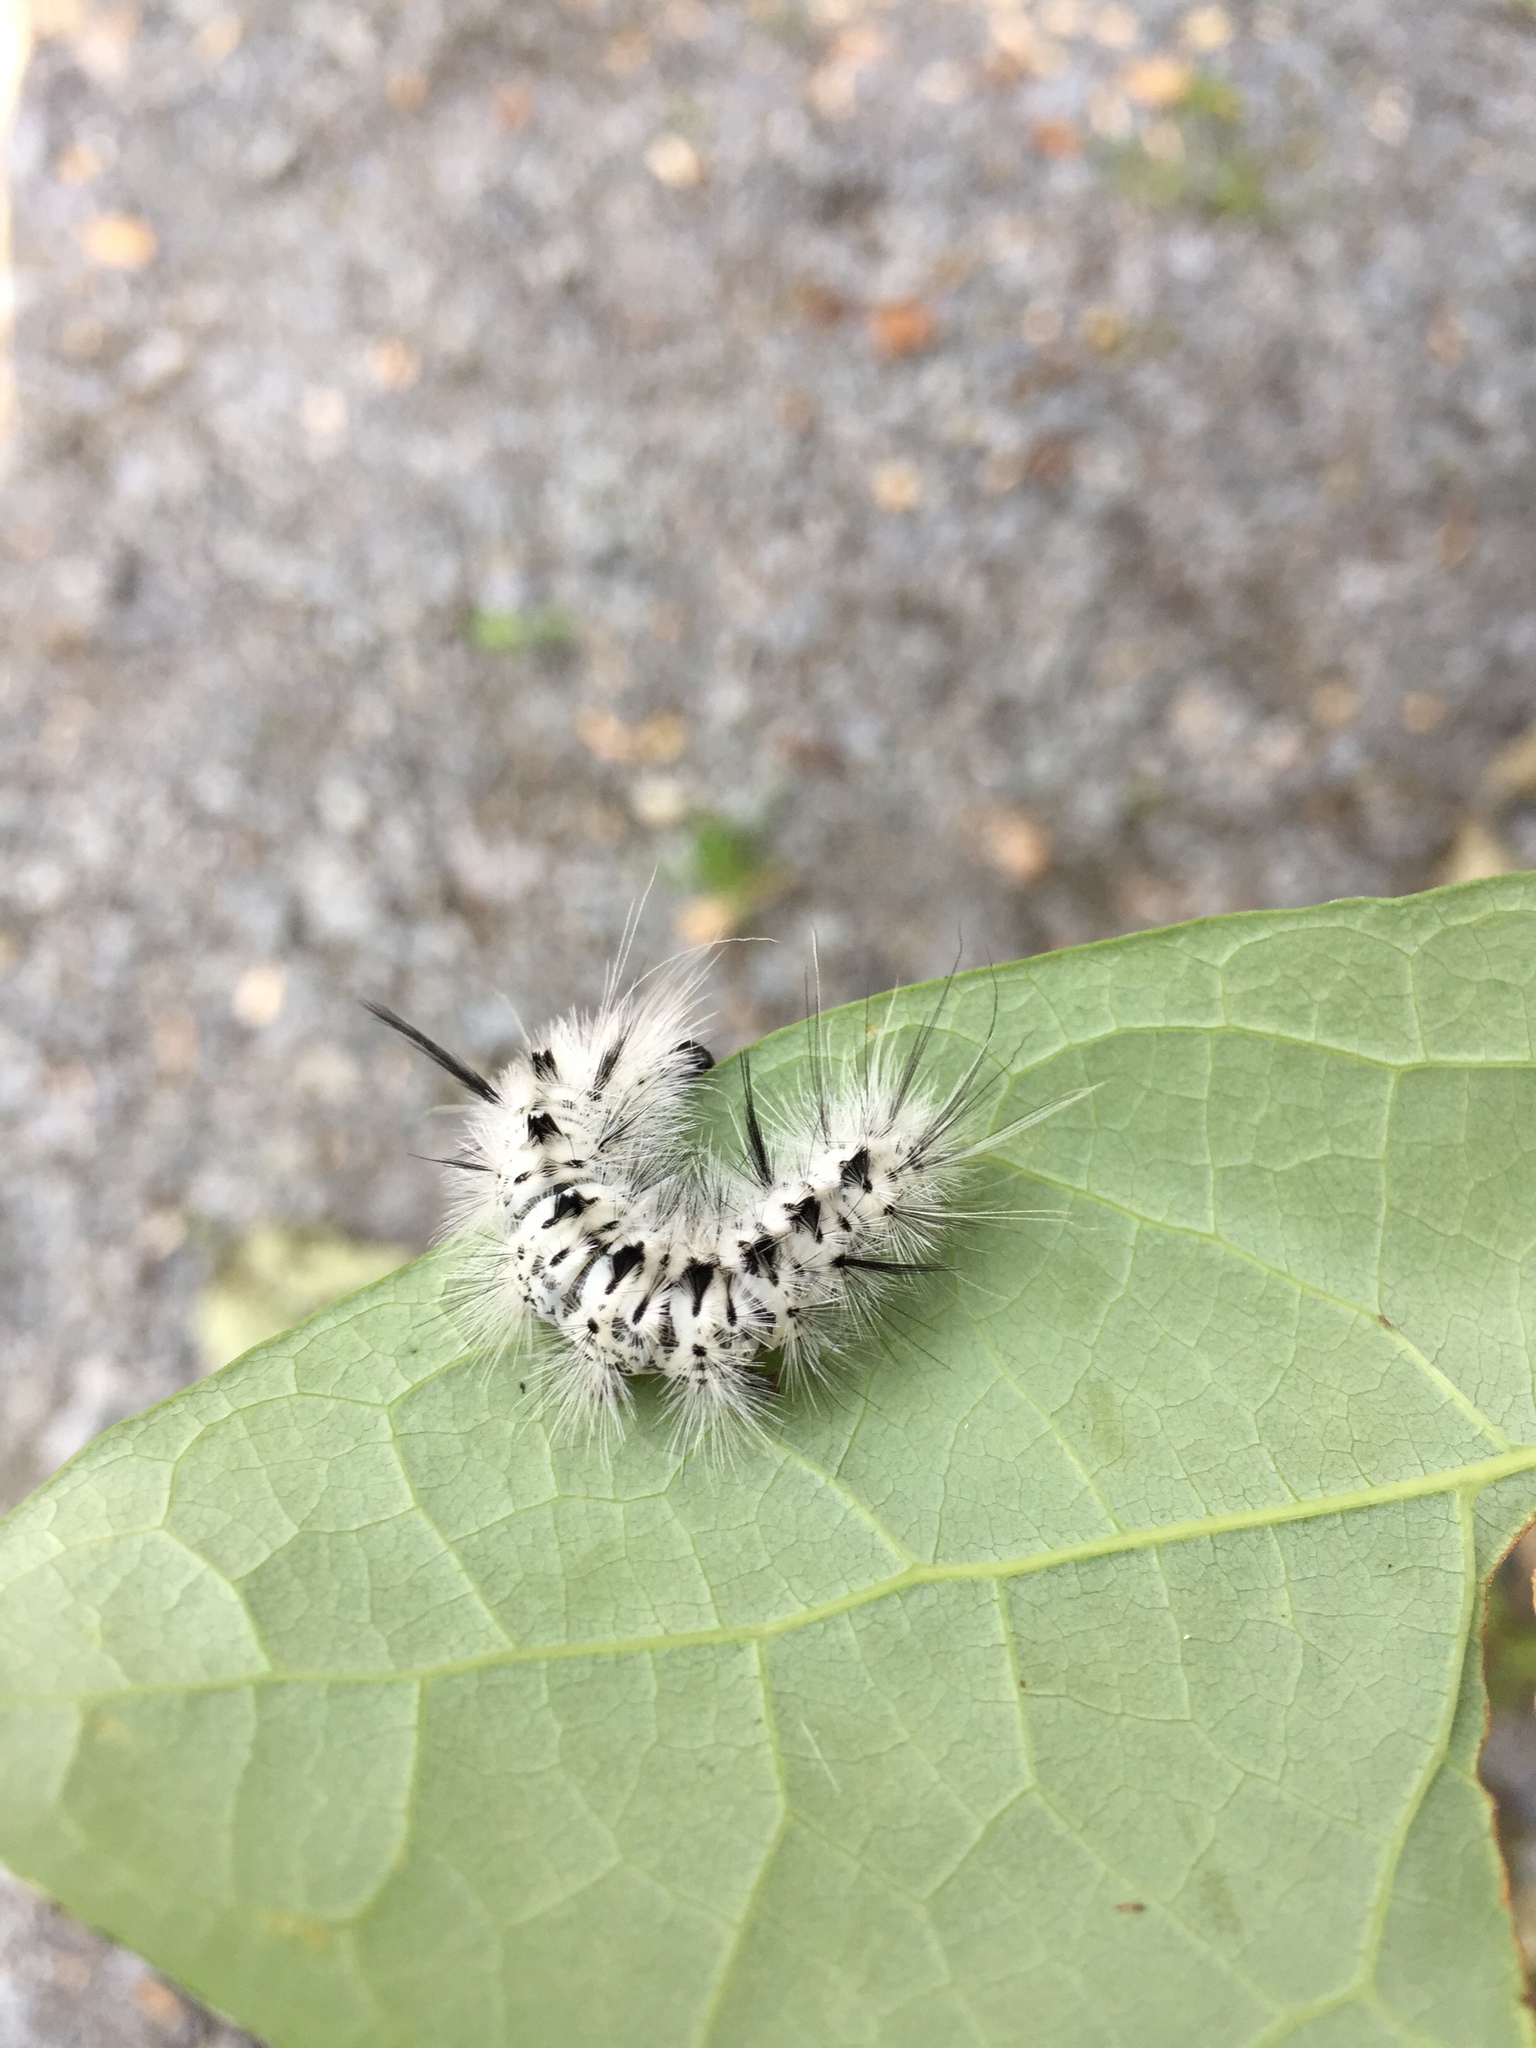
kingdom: Animalia
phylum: Arthropoda
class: Insecta
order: Lepidoptera
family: Erebidae
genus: Lophocampa
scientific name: Lophocampa caryae
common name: Hickory tussock moth
